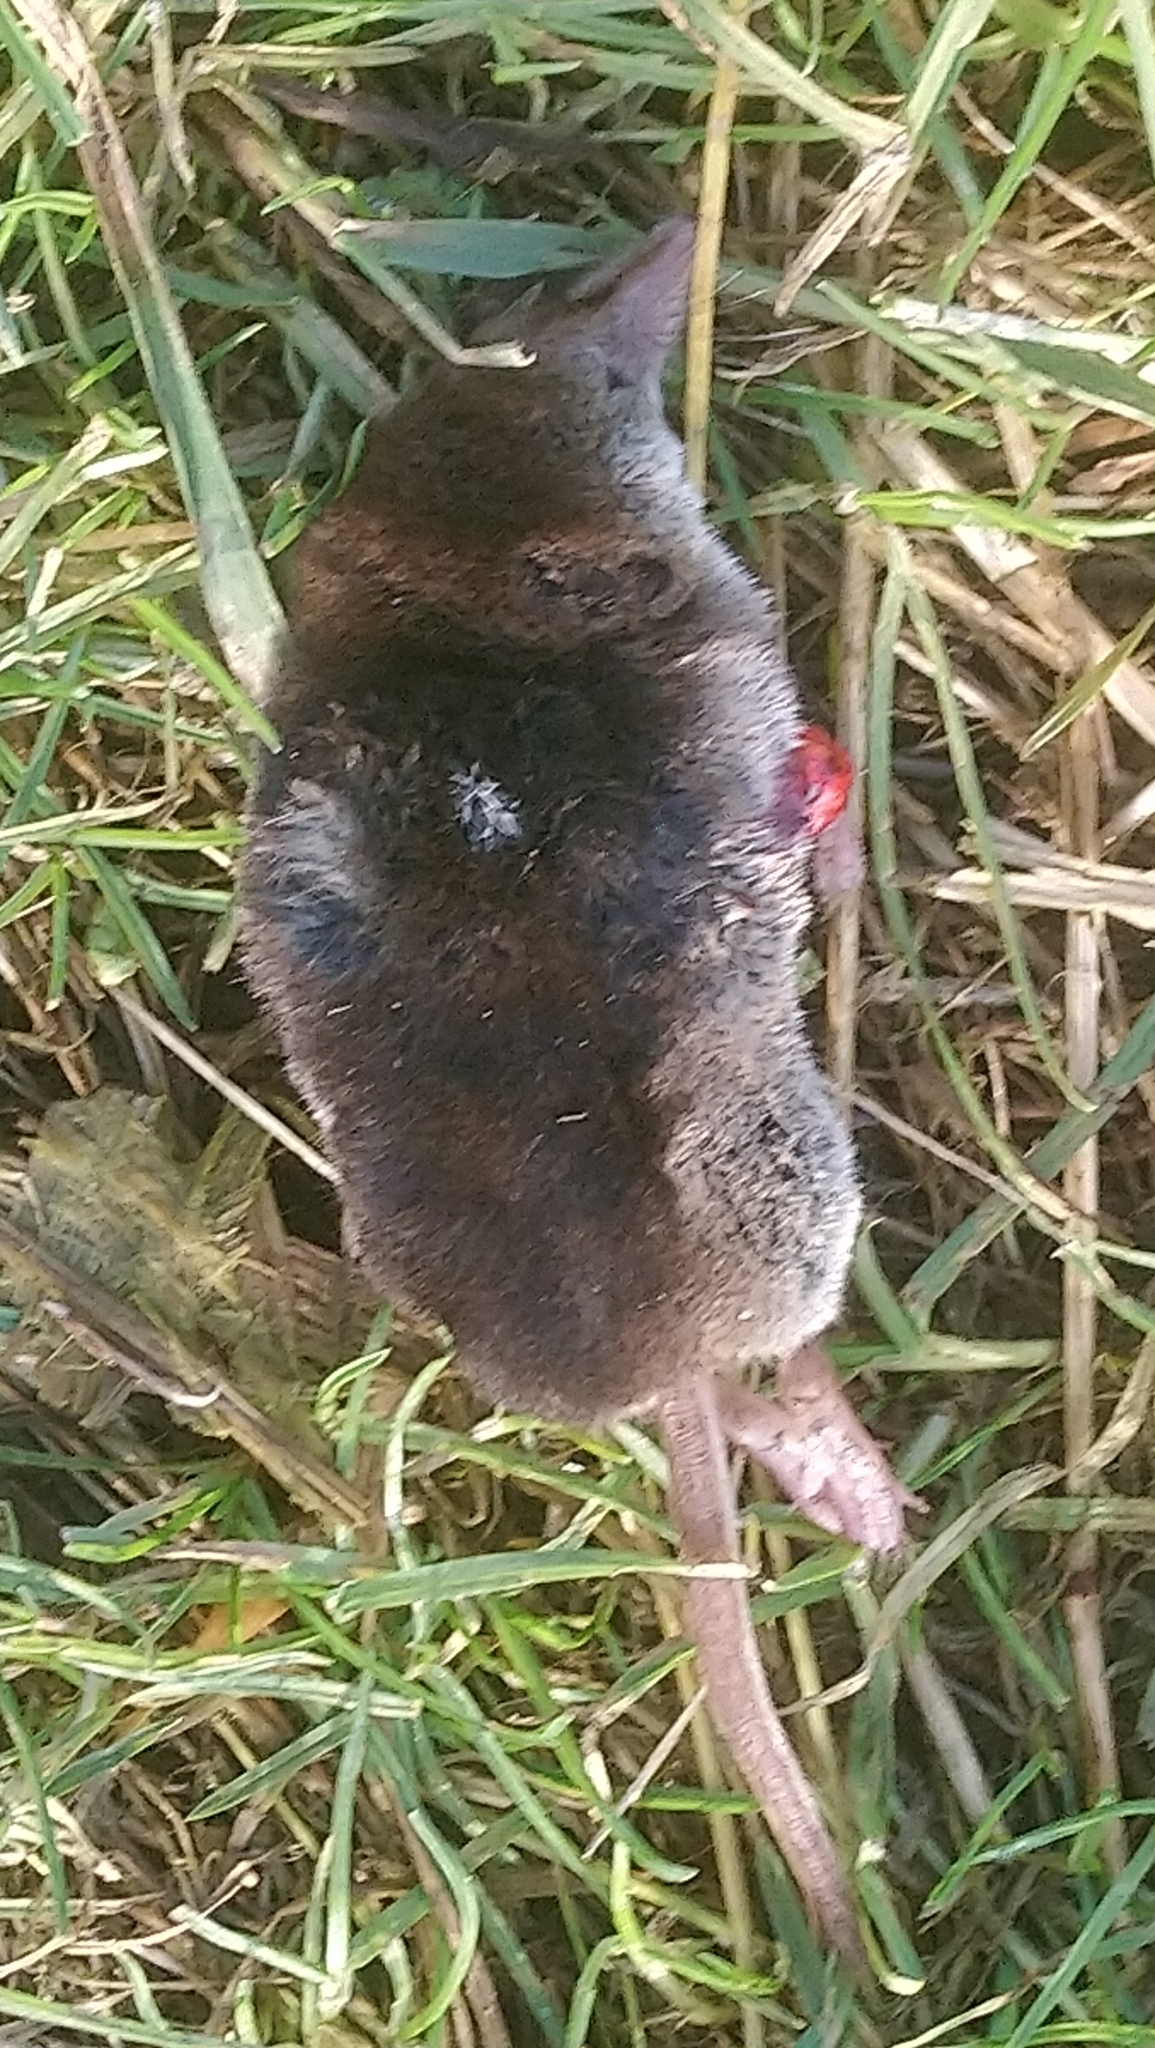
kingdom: Animalia
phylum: Chordata
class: Mammalia
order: Soricomorpha
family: Soricidae
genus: Sorex
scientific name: Sorex araneus
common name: Common shrew
